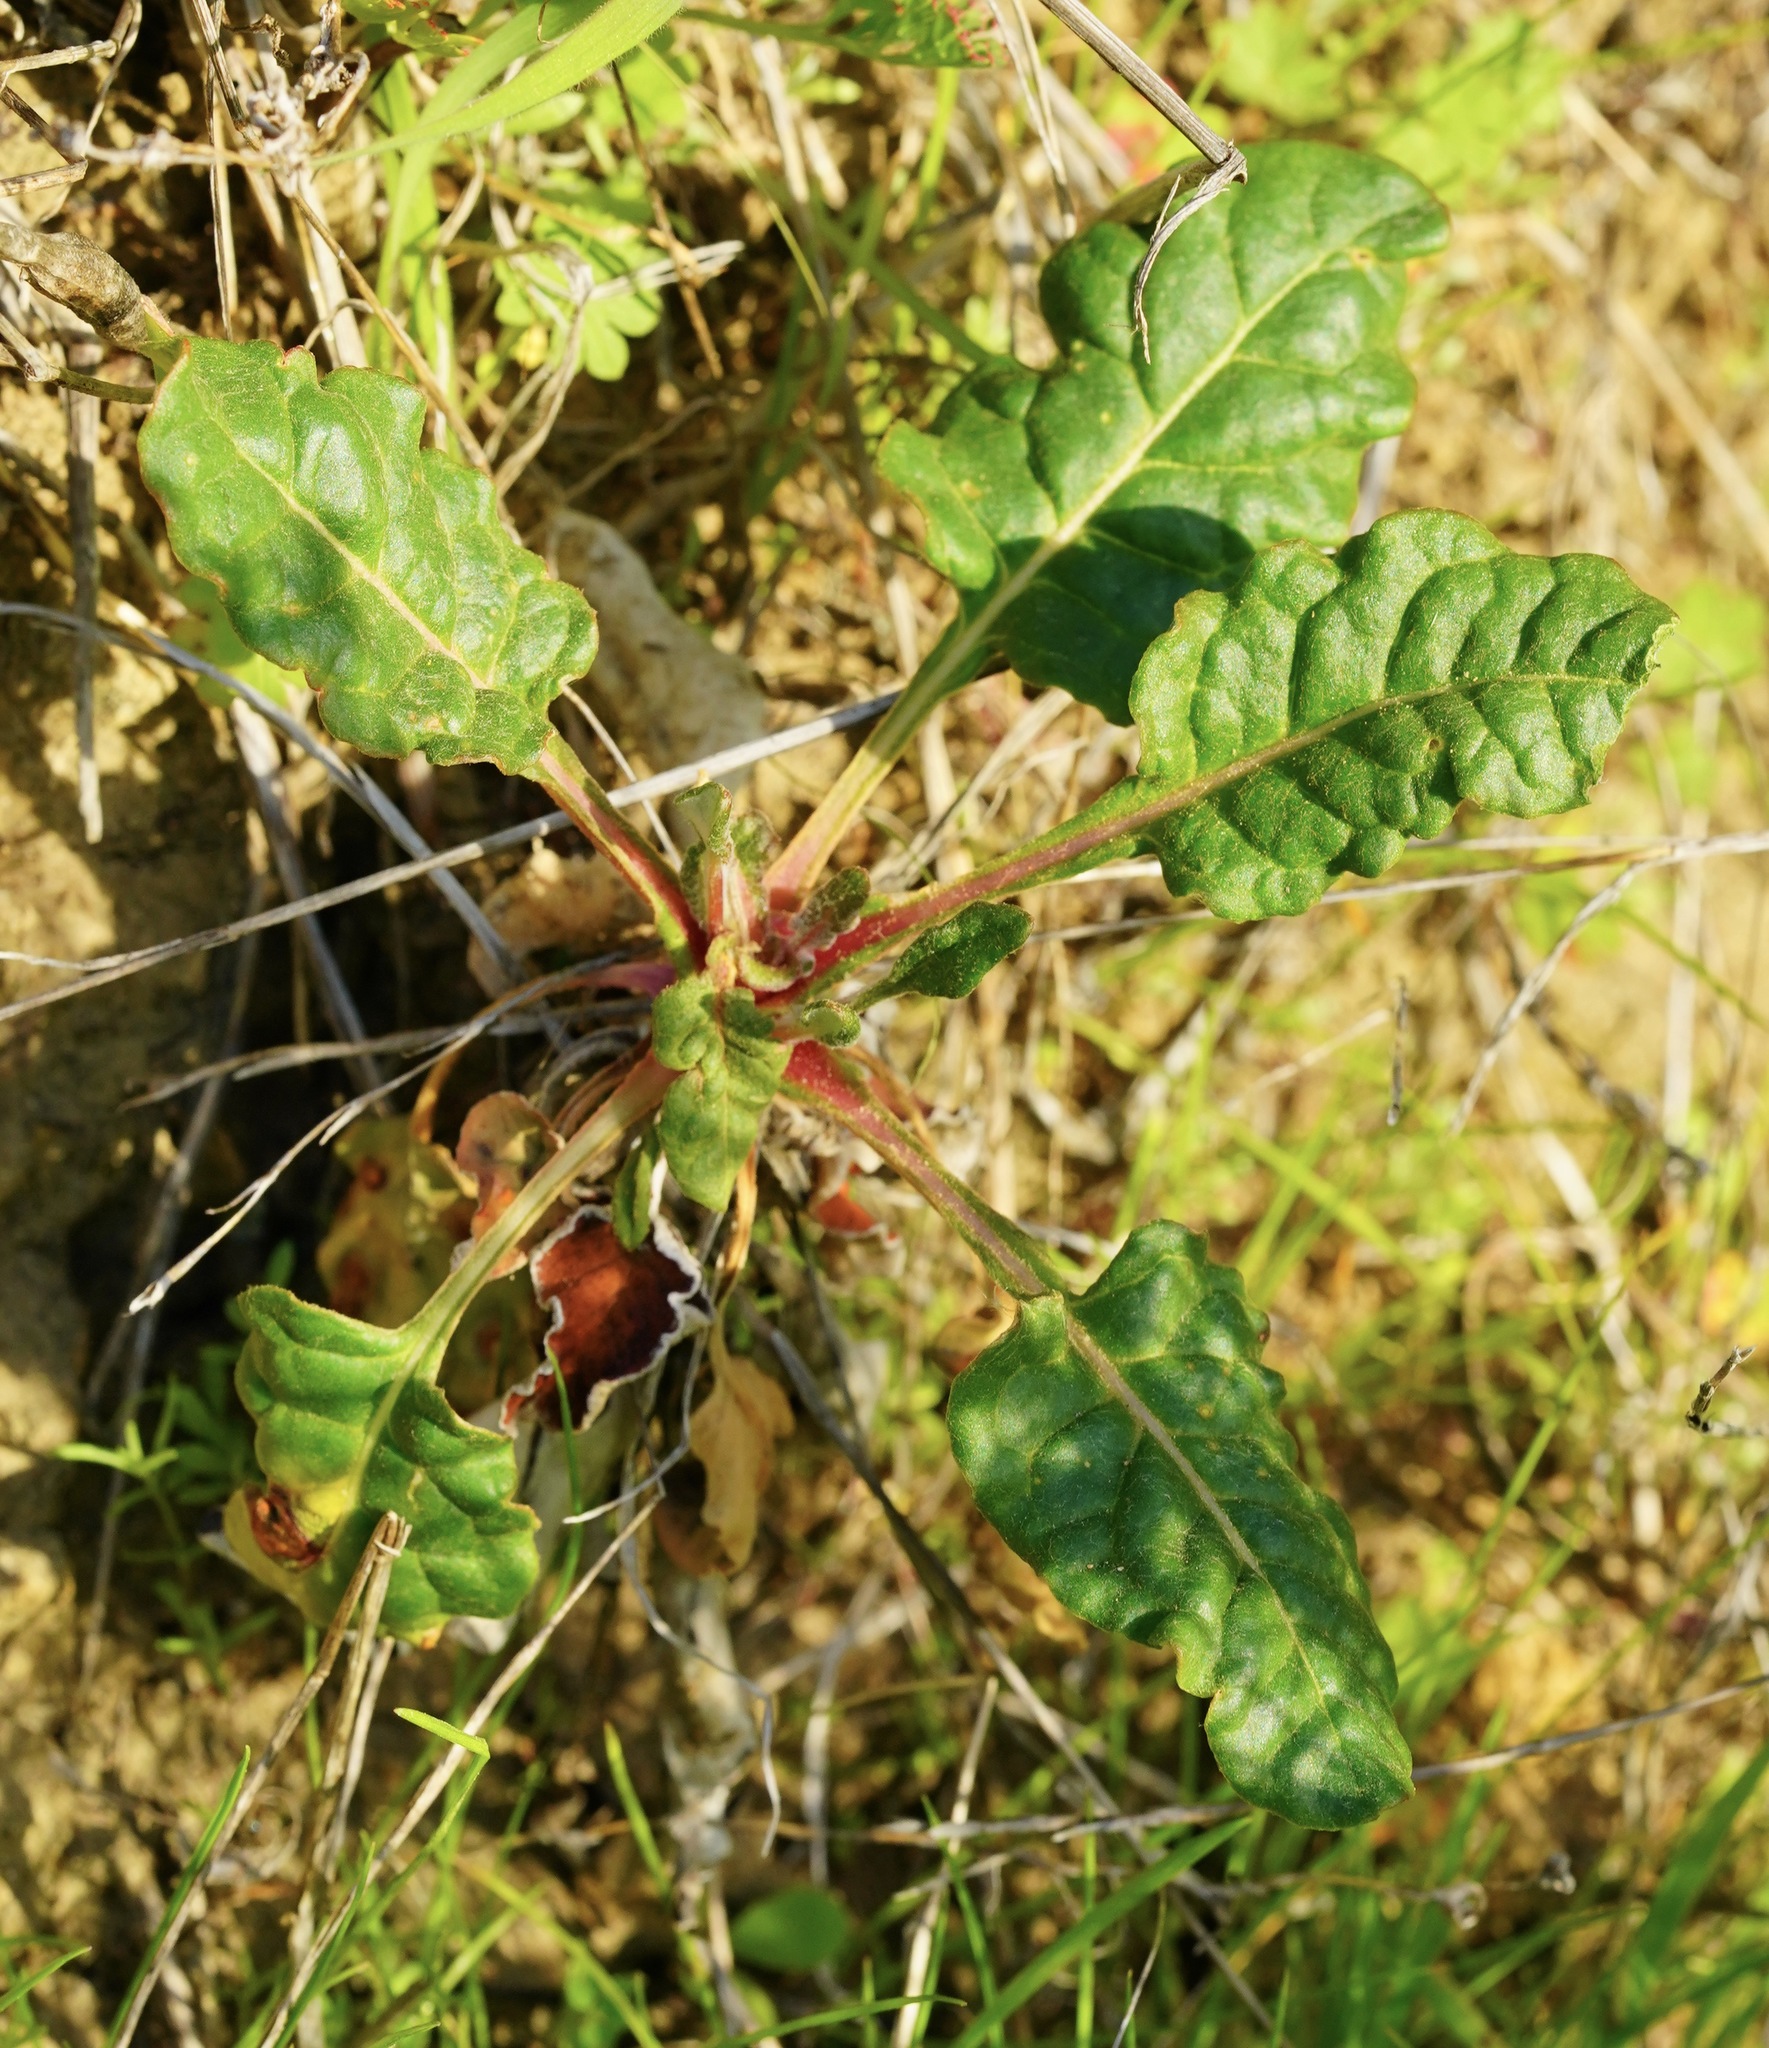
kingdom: Plantae
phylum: Tracheophyta
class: Magnoliopsida
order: Caryophyllales
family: Polygonaceae
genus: Eriogonum
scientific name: Eriogonum nudum
